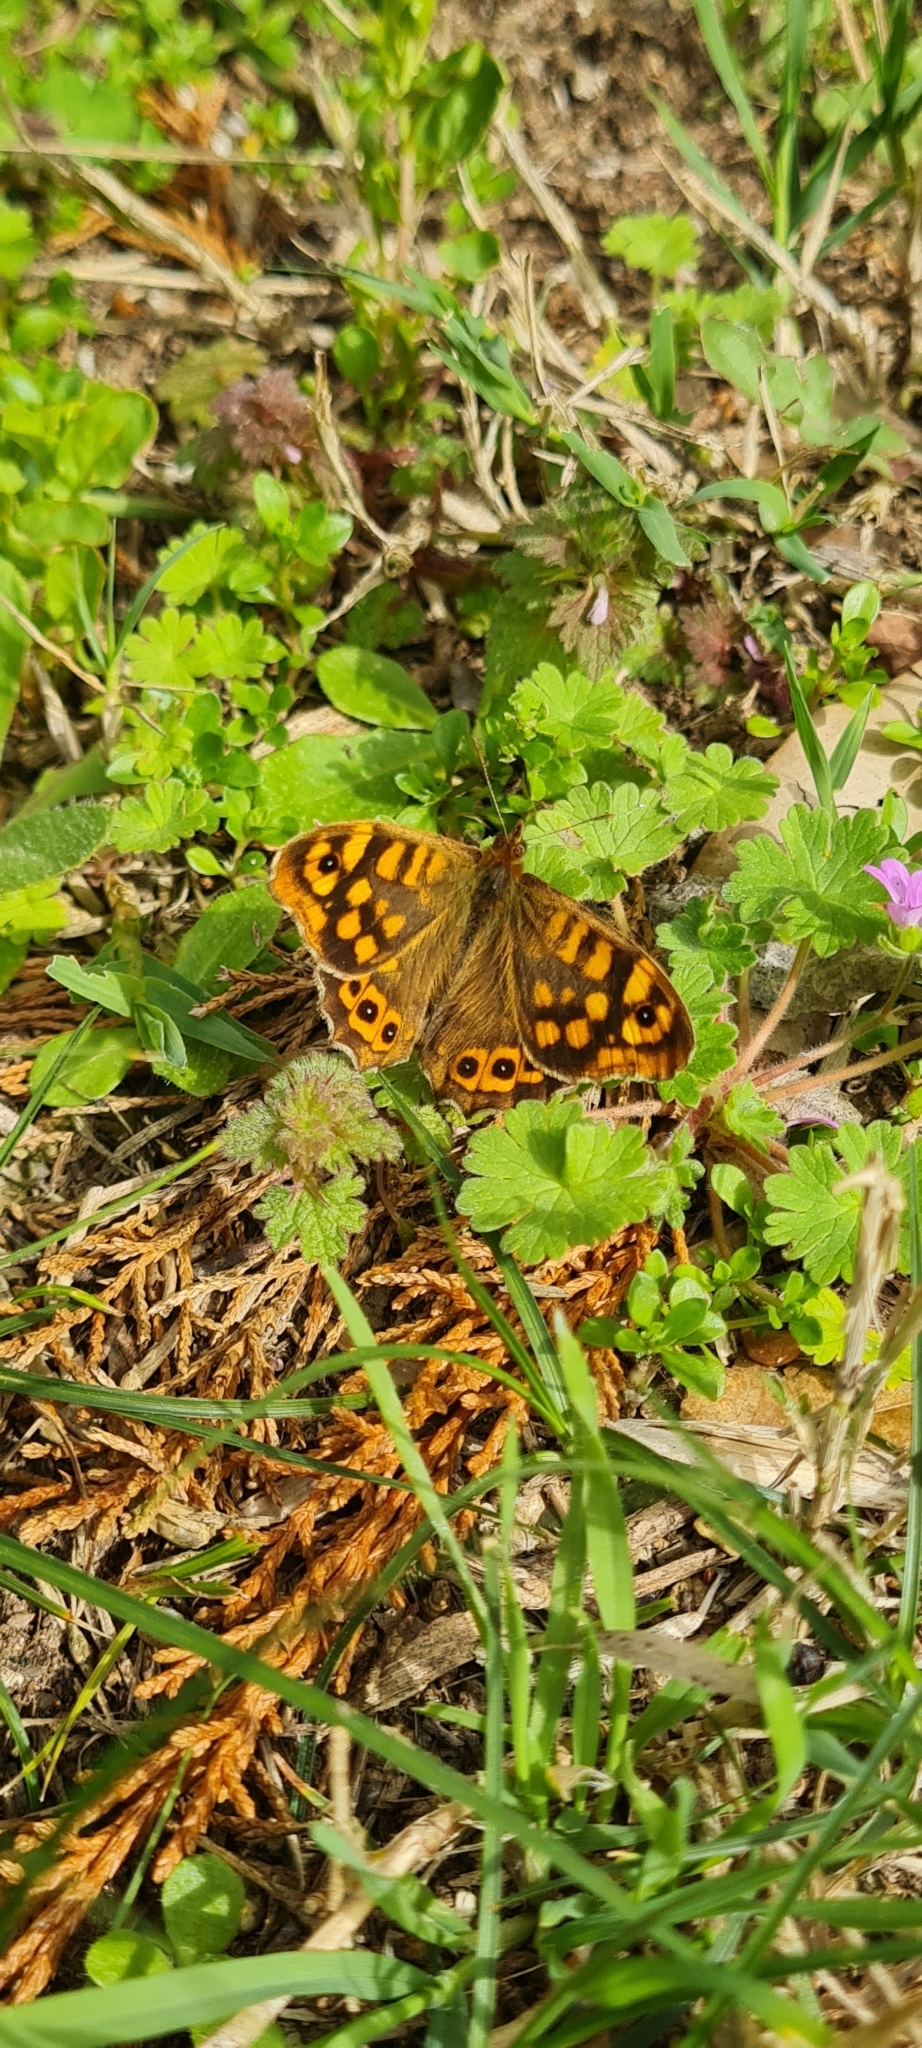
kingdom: Animalia
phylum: Arthropoda
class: Insecta
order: Lepidoptera
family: Nymphalidae
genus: Pararge
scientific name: Pararge aegeria
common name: Speckled wood
